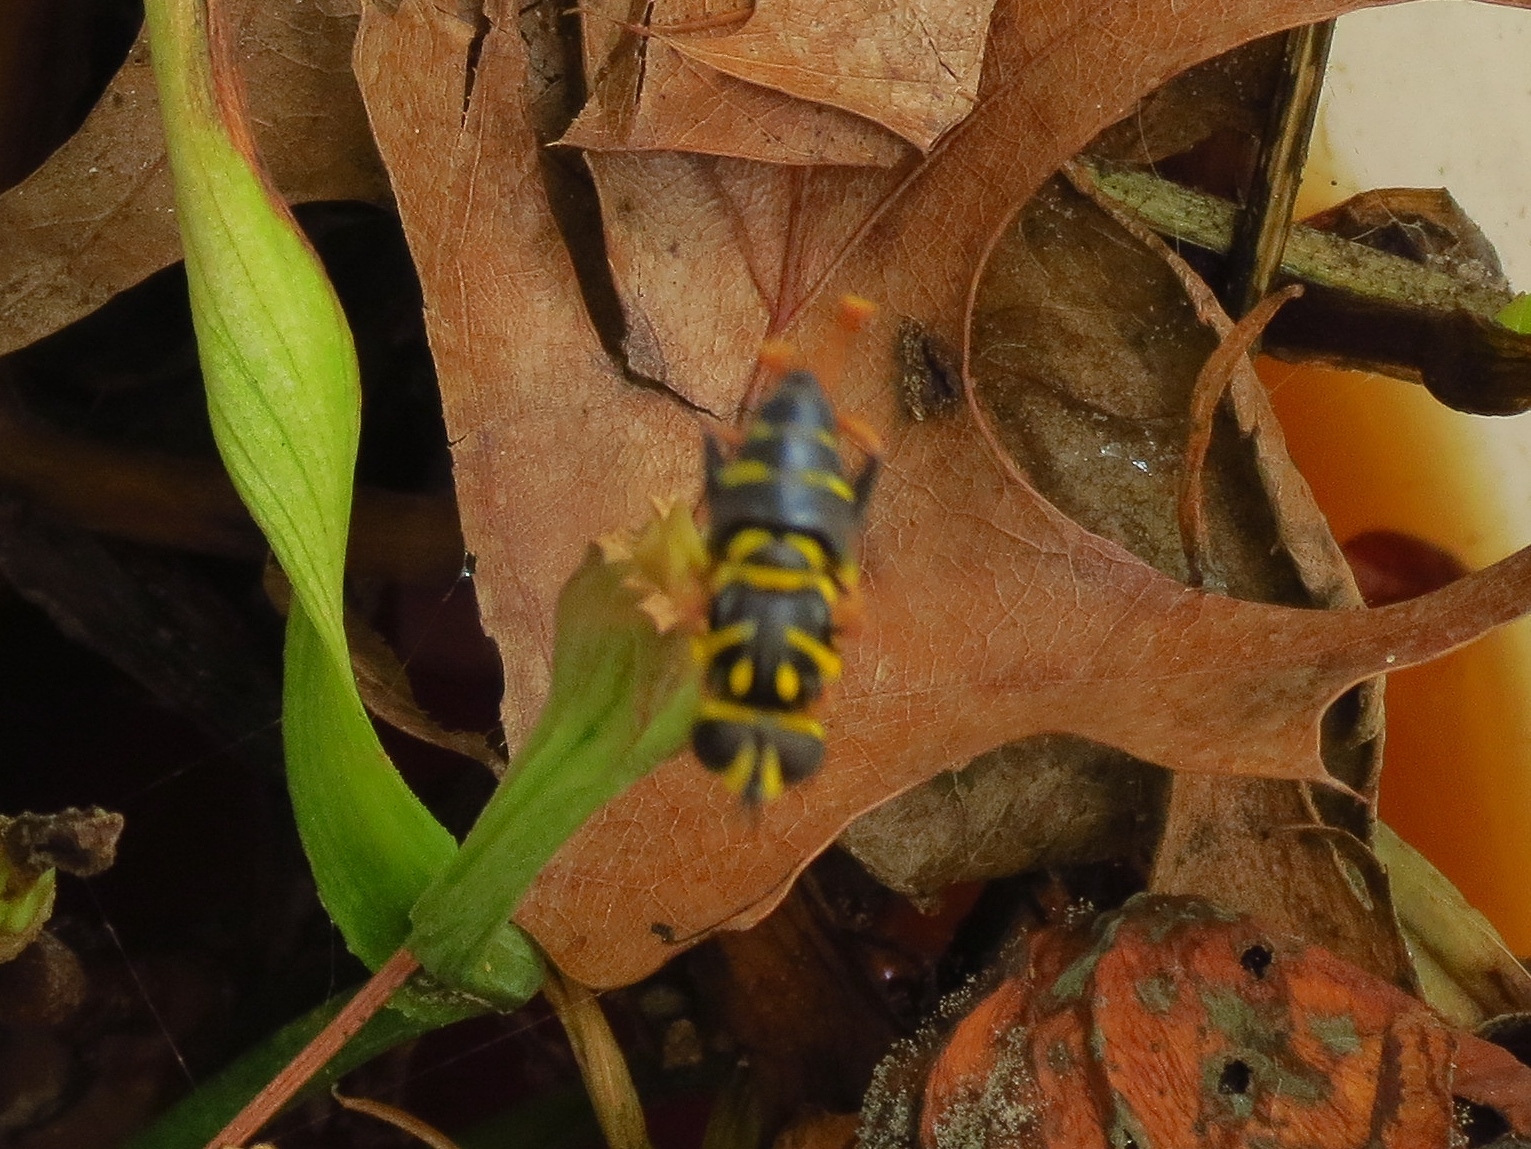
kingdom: Animalia
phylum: Arthropoda
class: Insecta
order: Diptera
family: Syrphidae
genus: Meromacrus
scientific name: Meromacrus acutus
